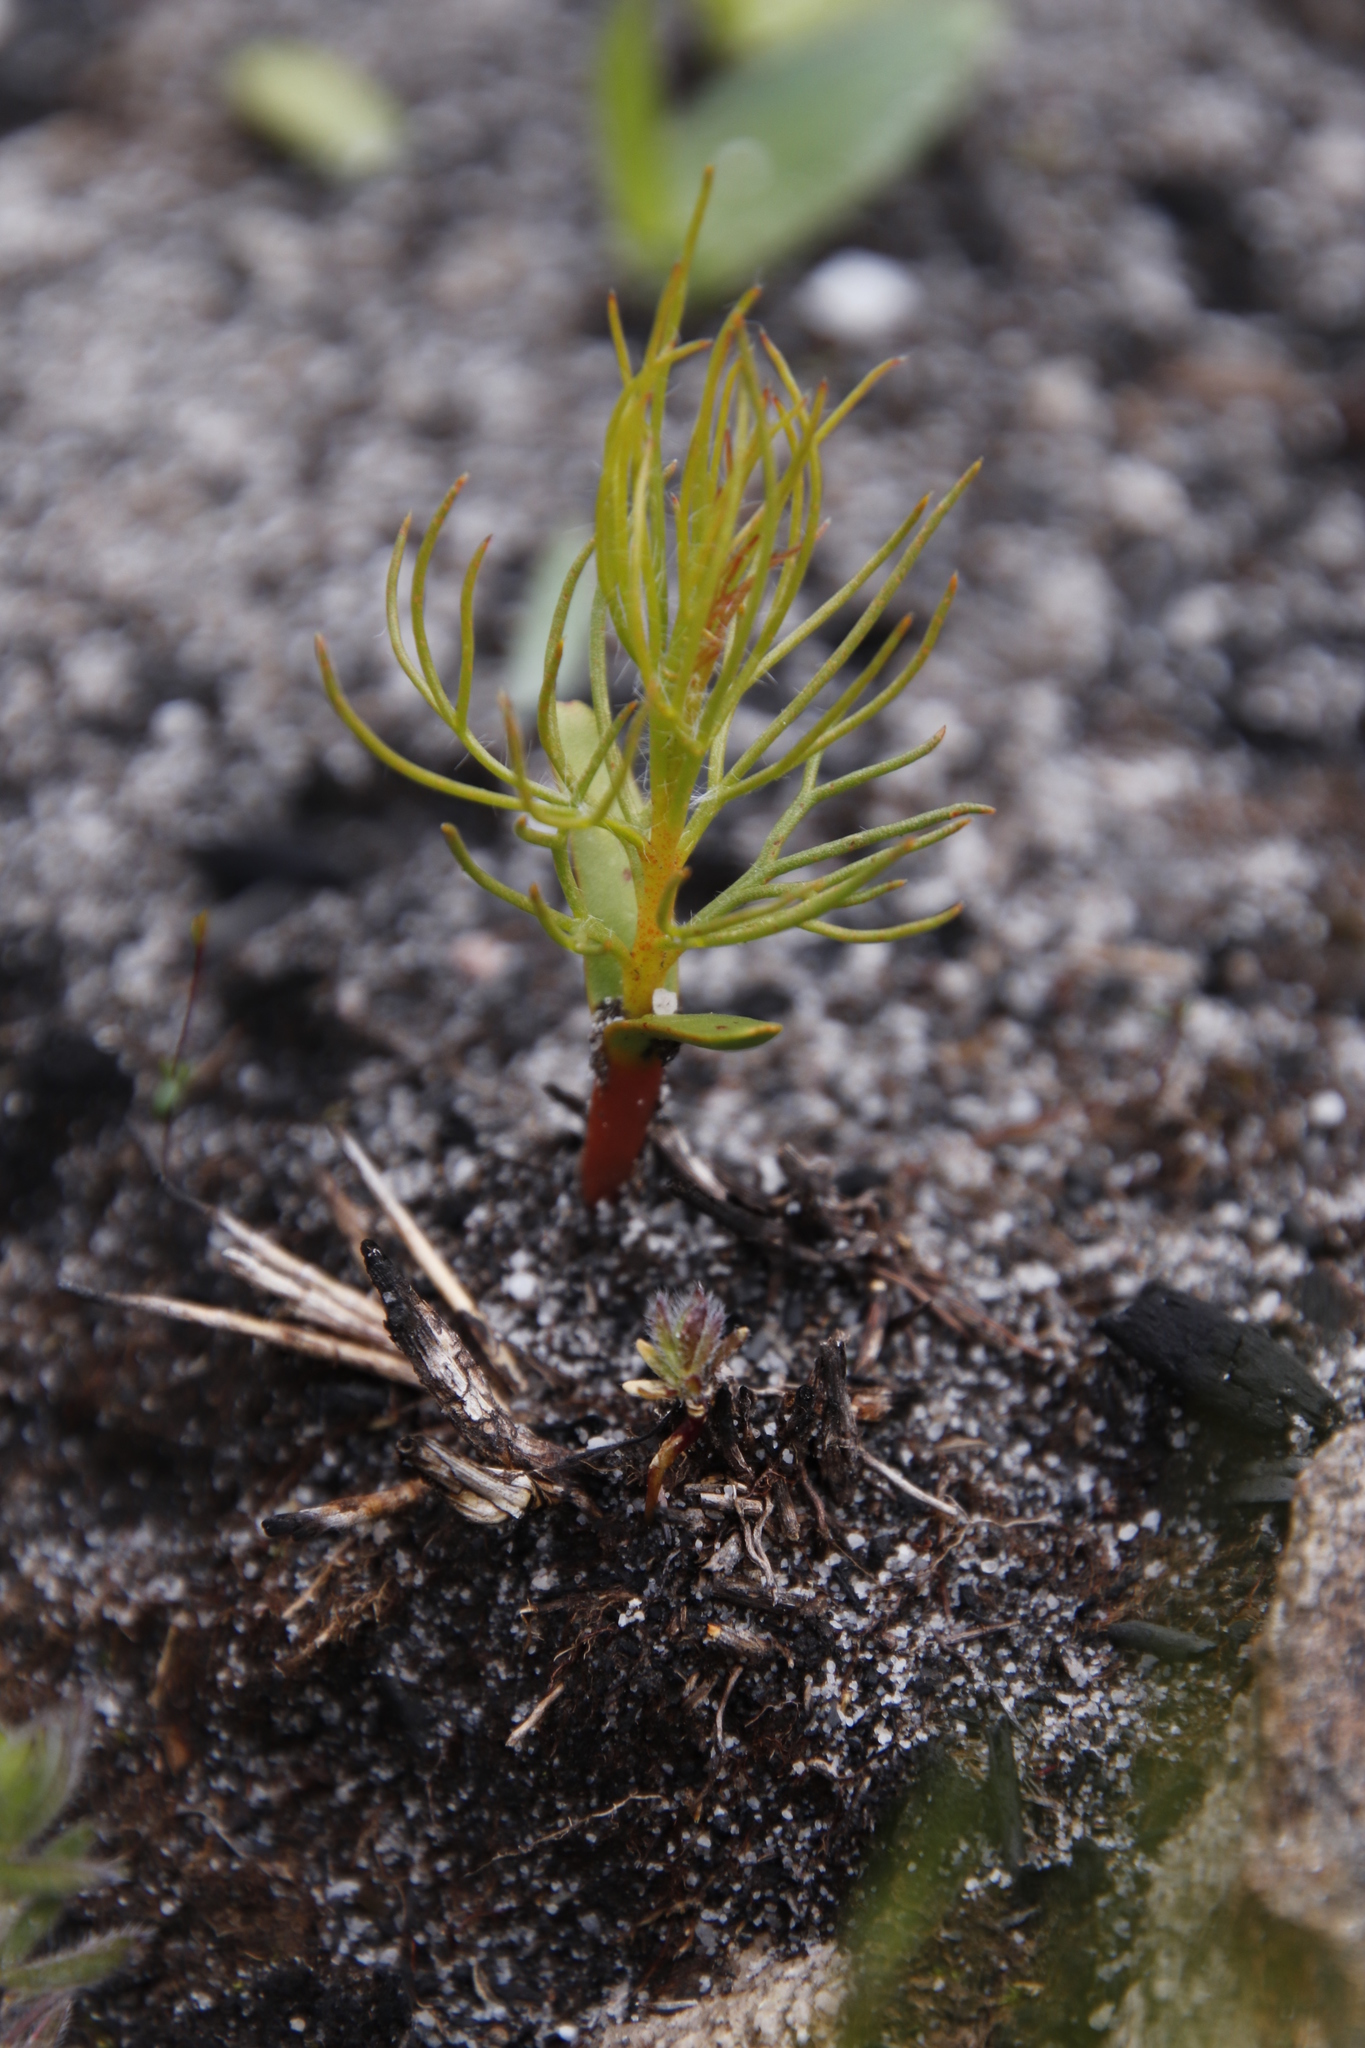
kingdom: Plantae
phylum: Tracheophyta
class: Magnoliopsida
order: Proteales
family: Proteaceae
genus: Serruria
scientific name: Serruria florida
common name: Blushing bride
